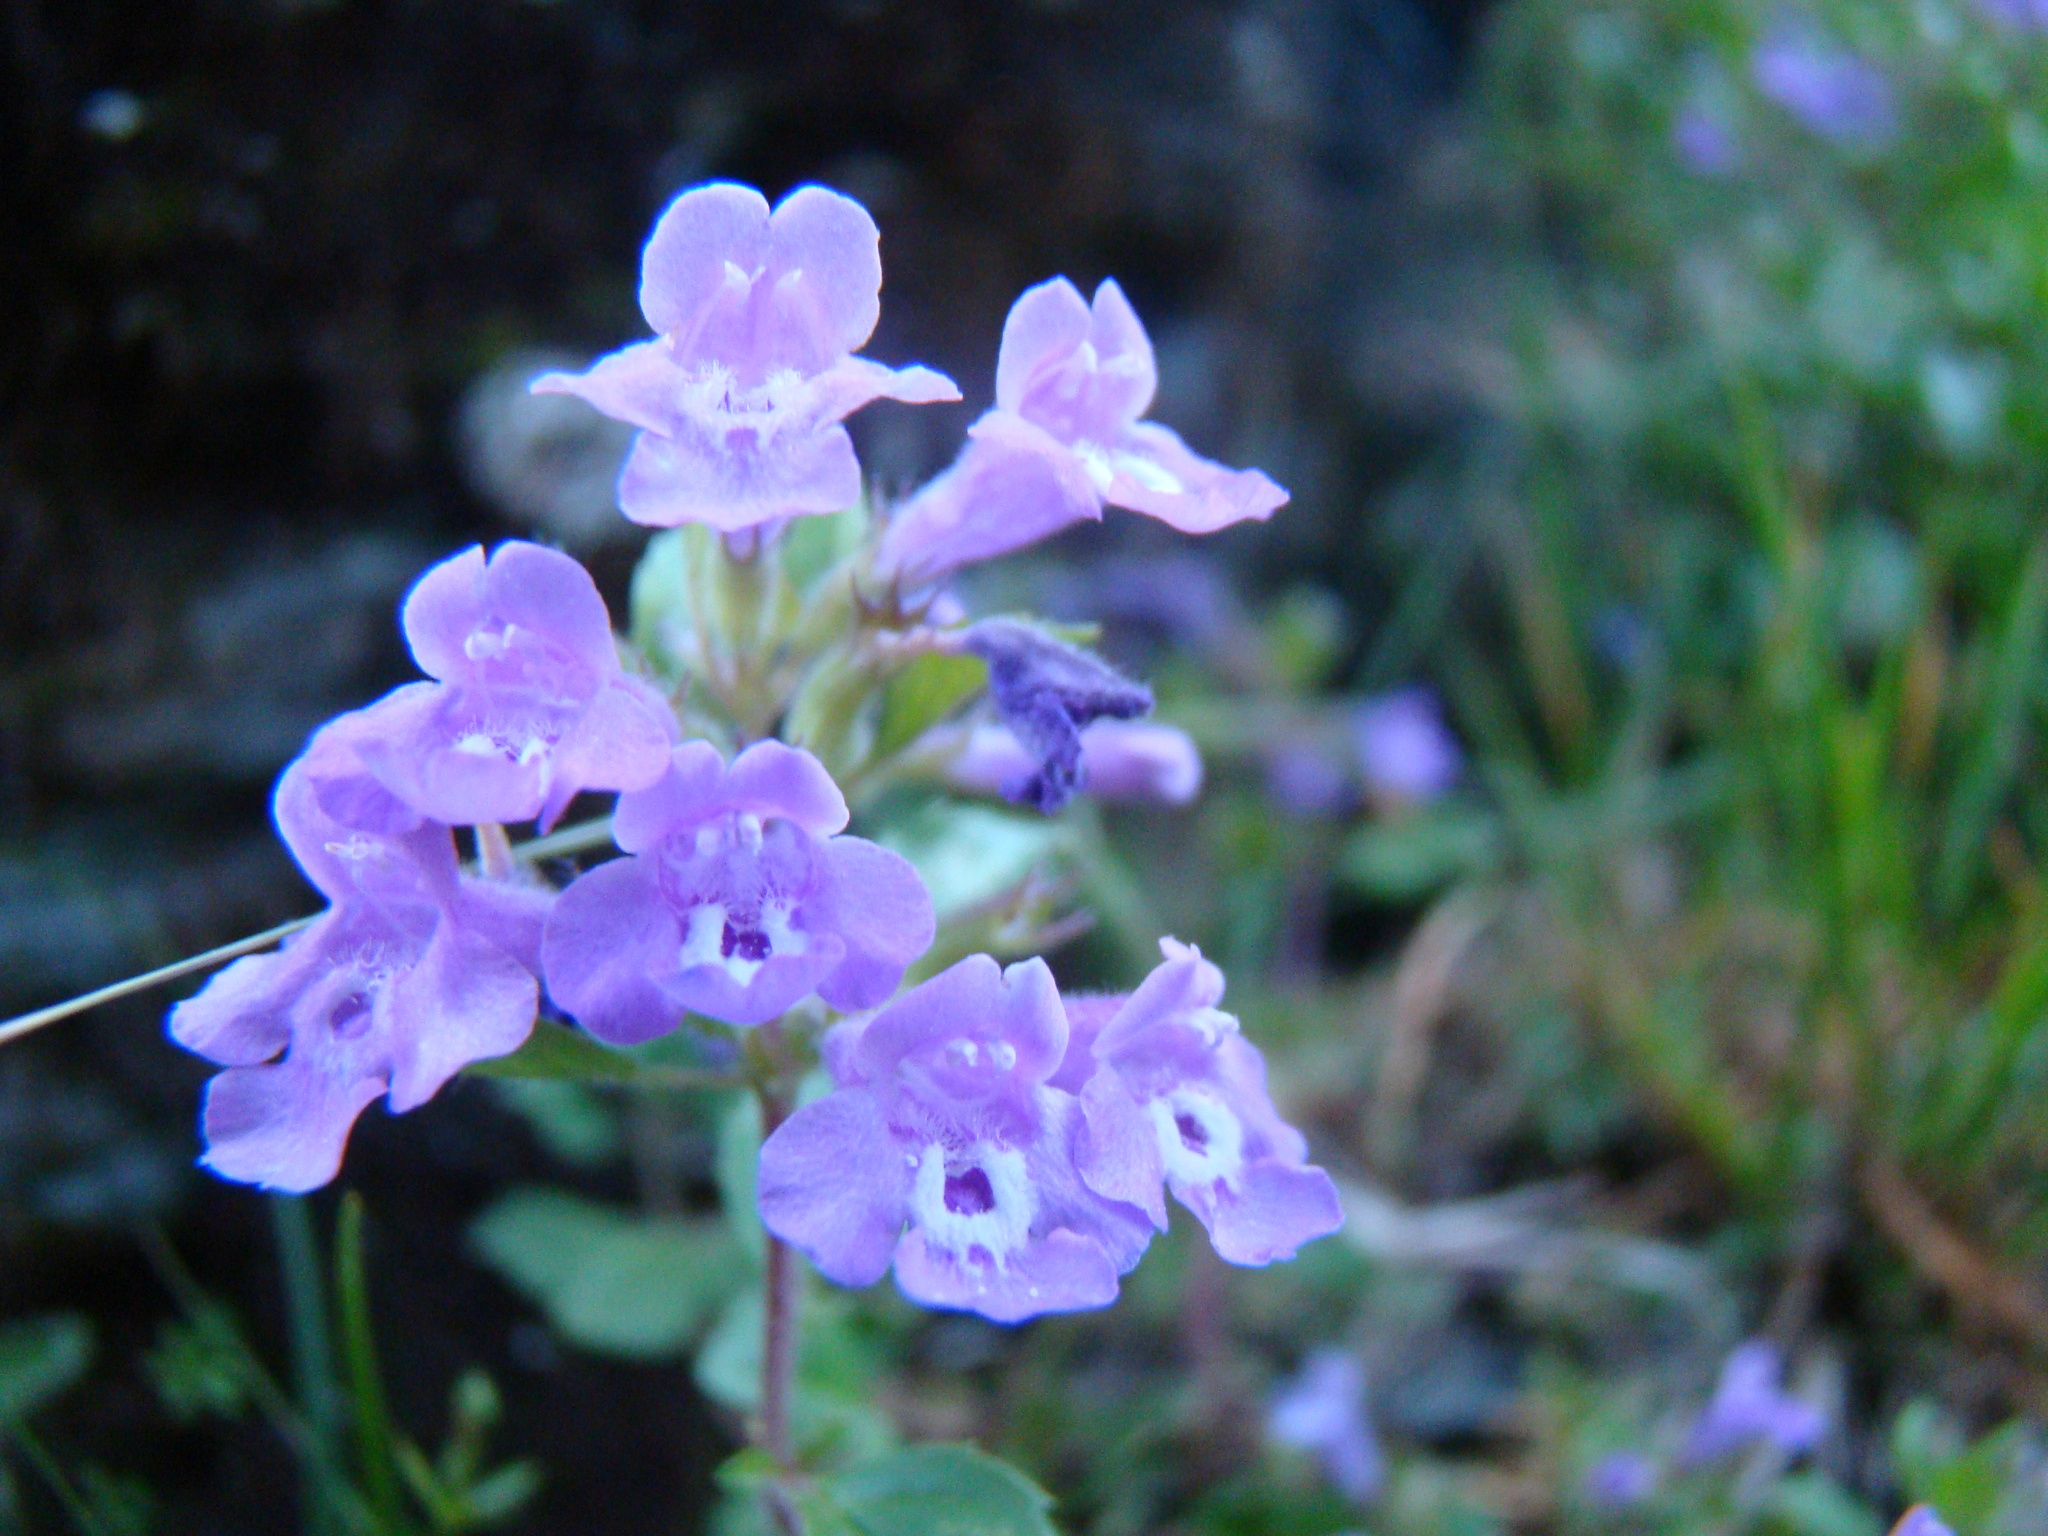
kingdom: Plantae
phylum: Tracheophyta
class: Magnoliopsida
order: Lamiales
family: Lamiaceae
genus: Clinopodium
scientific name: Clinopodium alpinum
